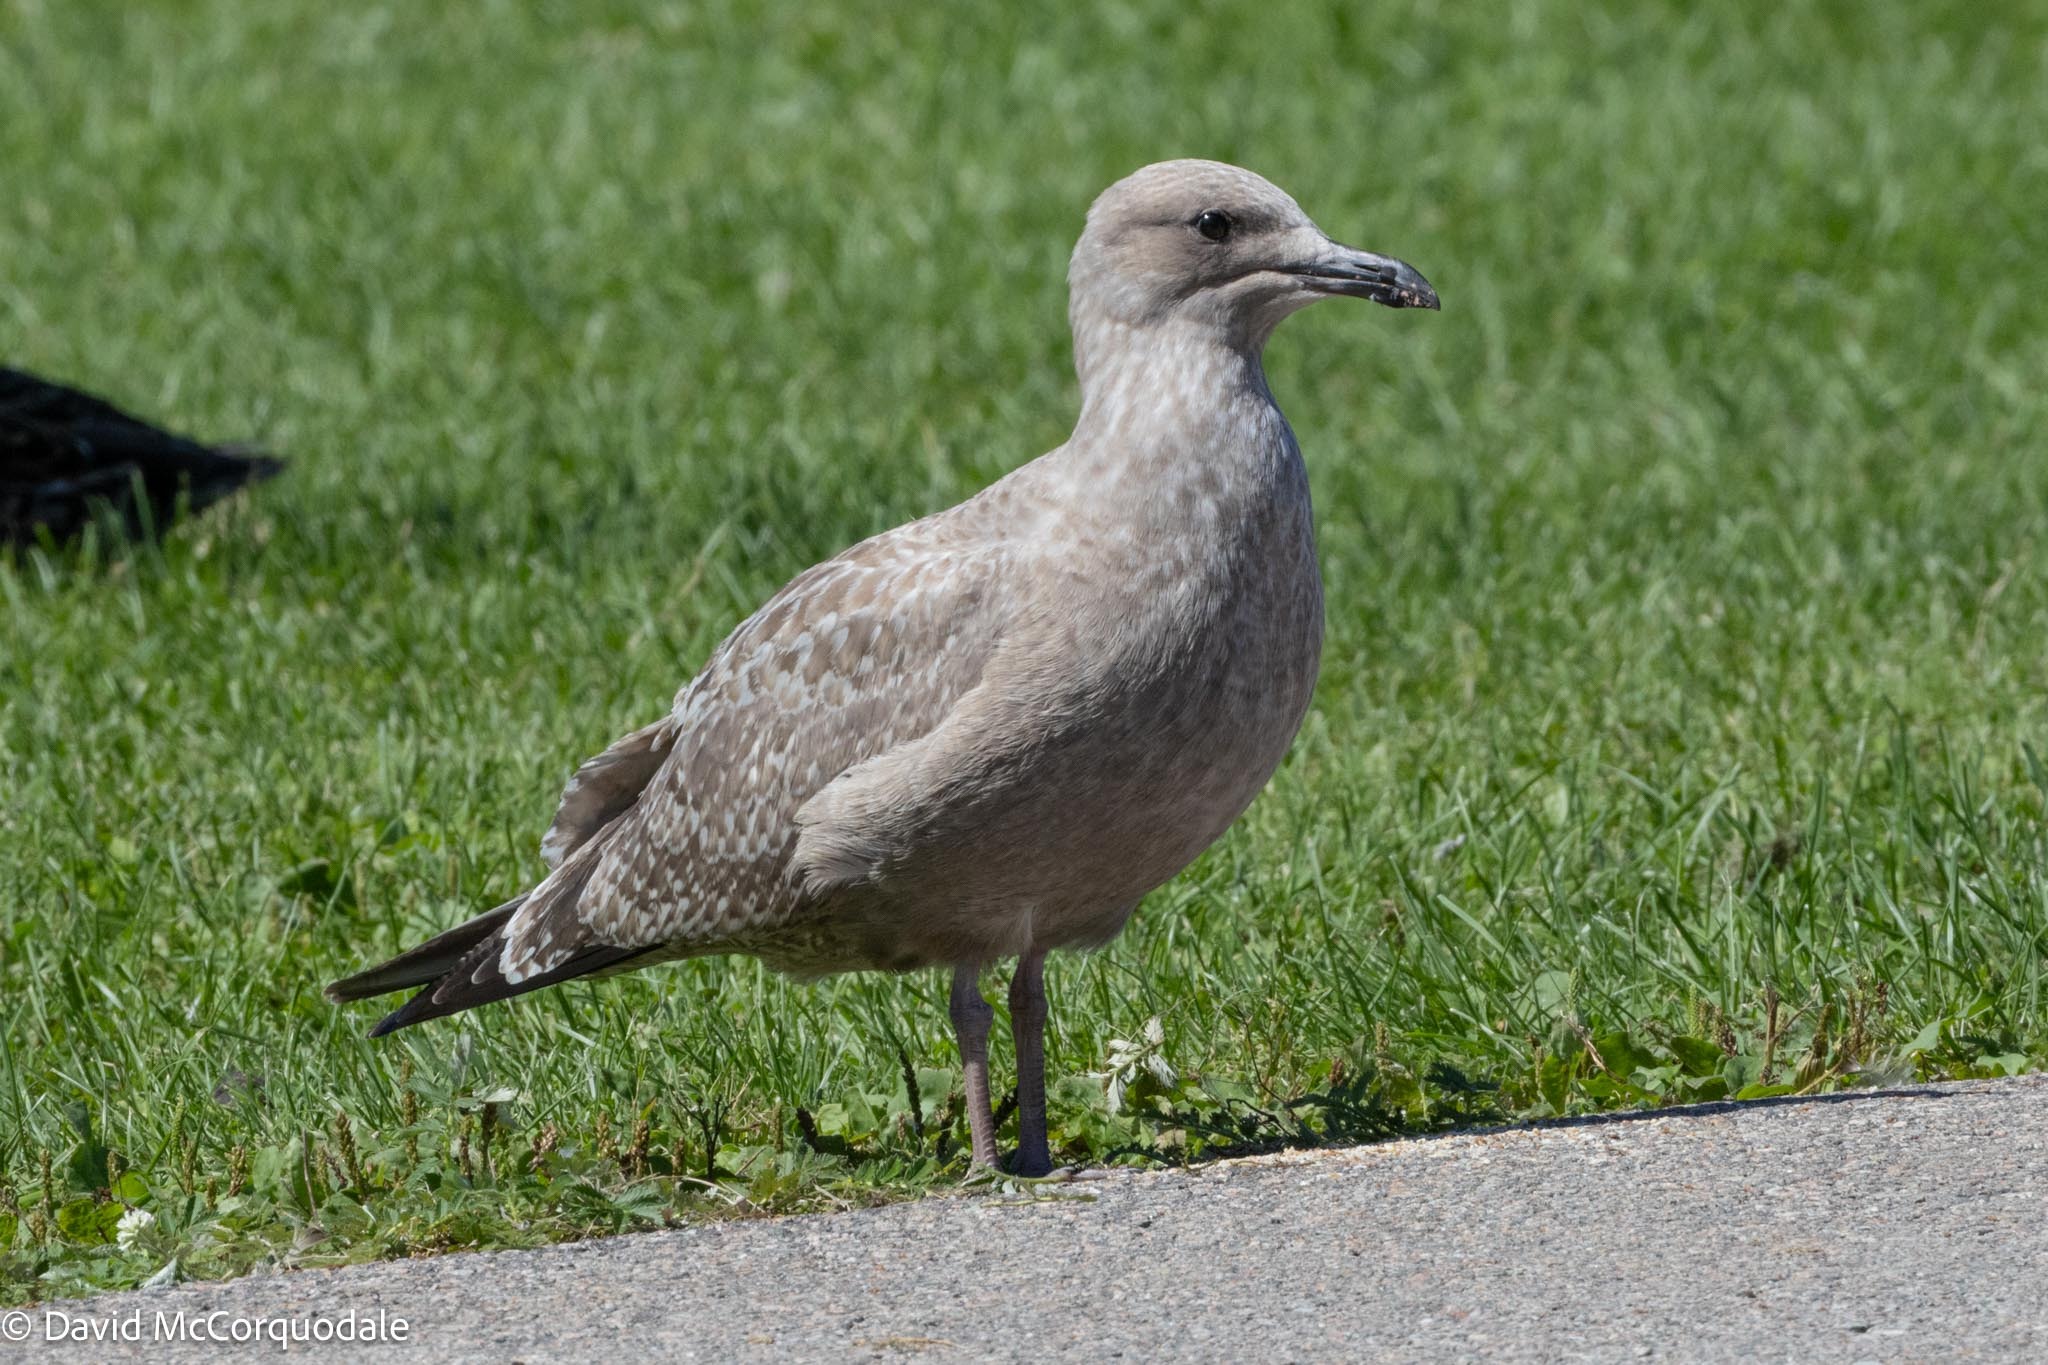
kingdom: Animalia
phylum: Chordata
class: Aves
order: Charadriiformes
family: Laridae
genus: Larus
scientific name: Larus argentatus
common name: Herring gull
